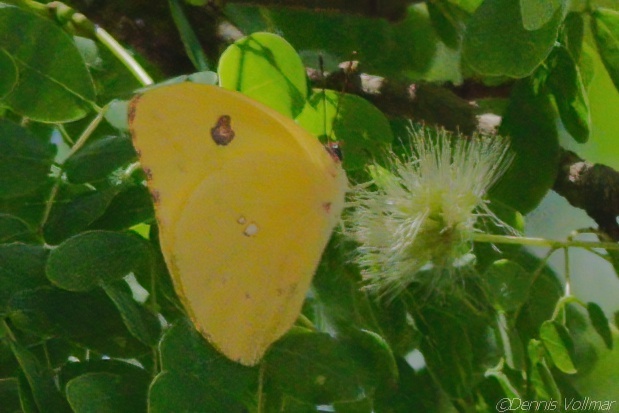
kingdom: Animalia
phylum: Arthropoda
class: Insecta
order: Lepidoptera
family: Pieridae
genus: Aphrissa
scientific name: Aphrissa neleis
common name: Pink-spot sulphur
